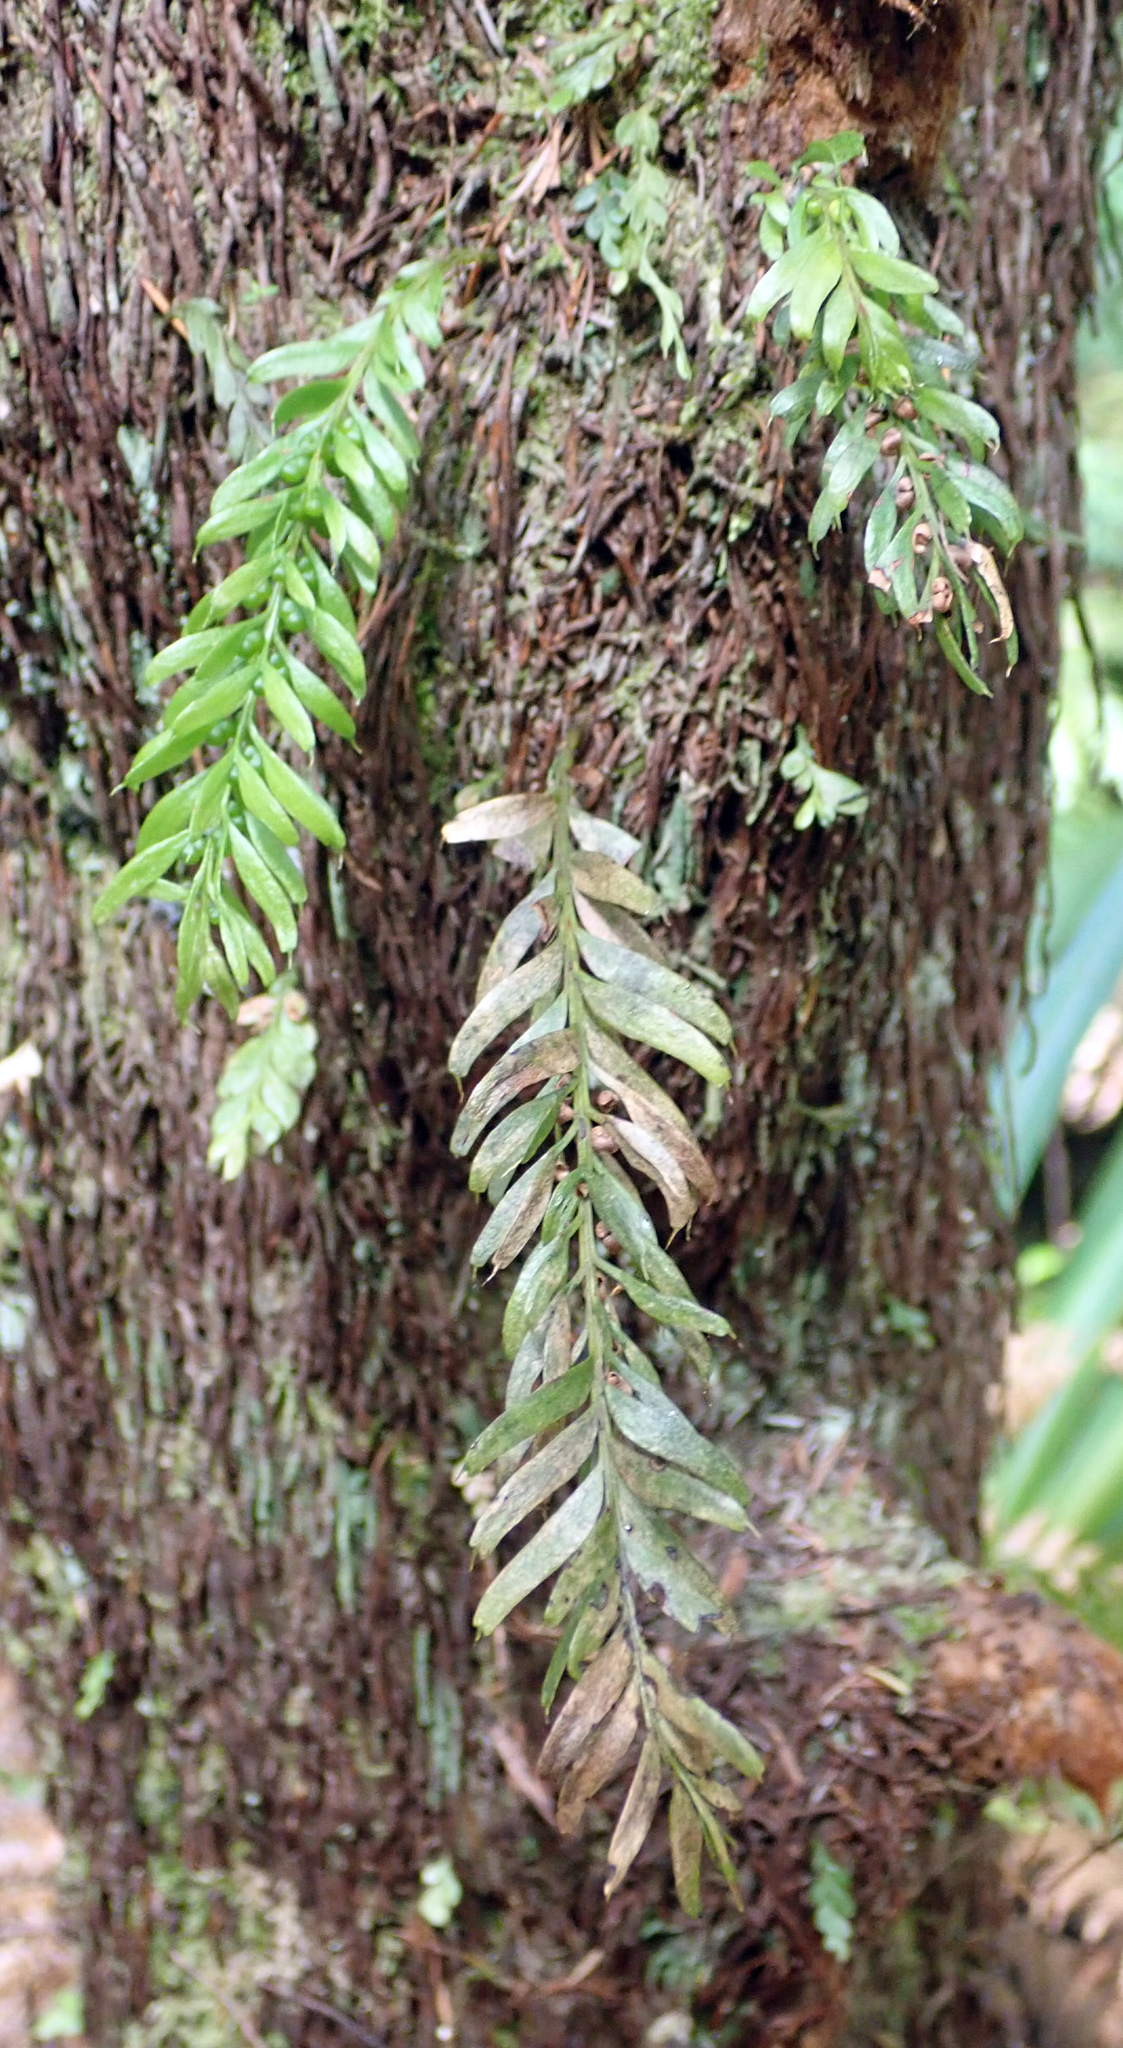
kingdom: Plantae
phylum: Tracheophyta
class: Polypodiopsida
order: Psilotales
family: Psilotaceae
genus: Tmesipteris
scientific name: Tmesipteris sigmatifolia
